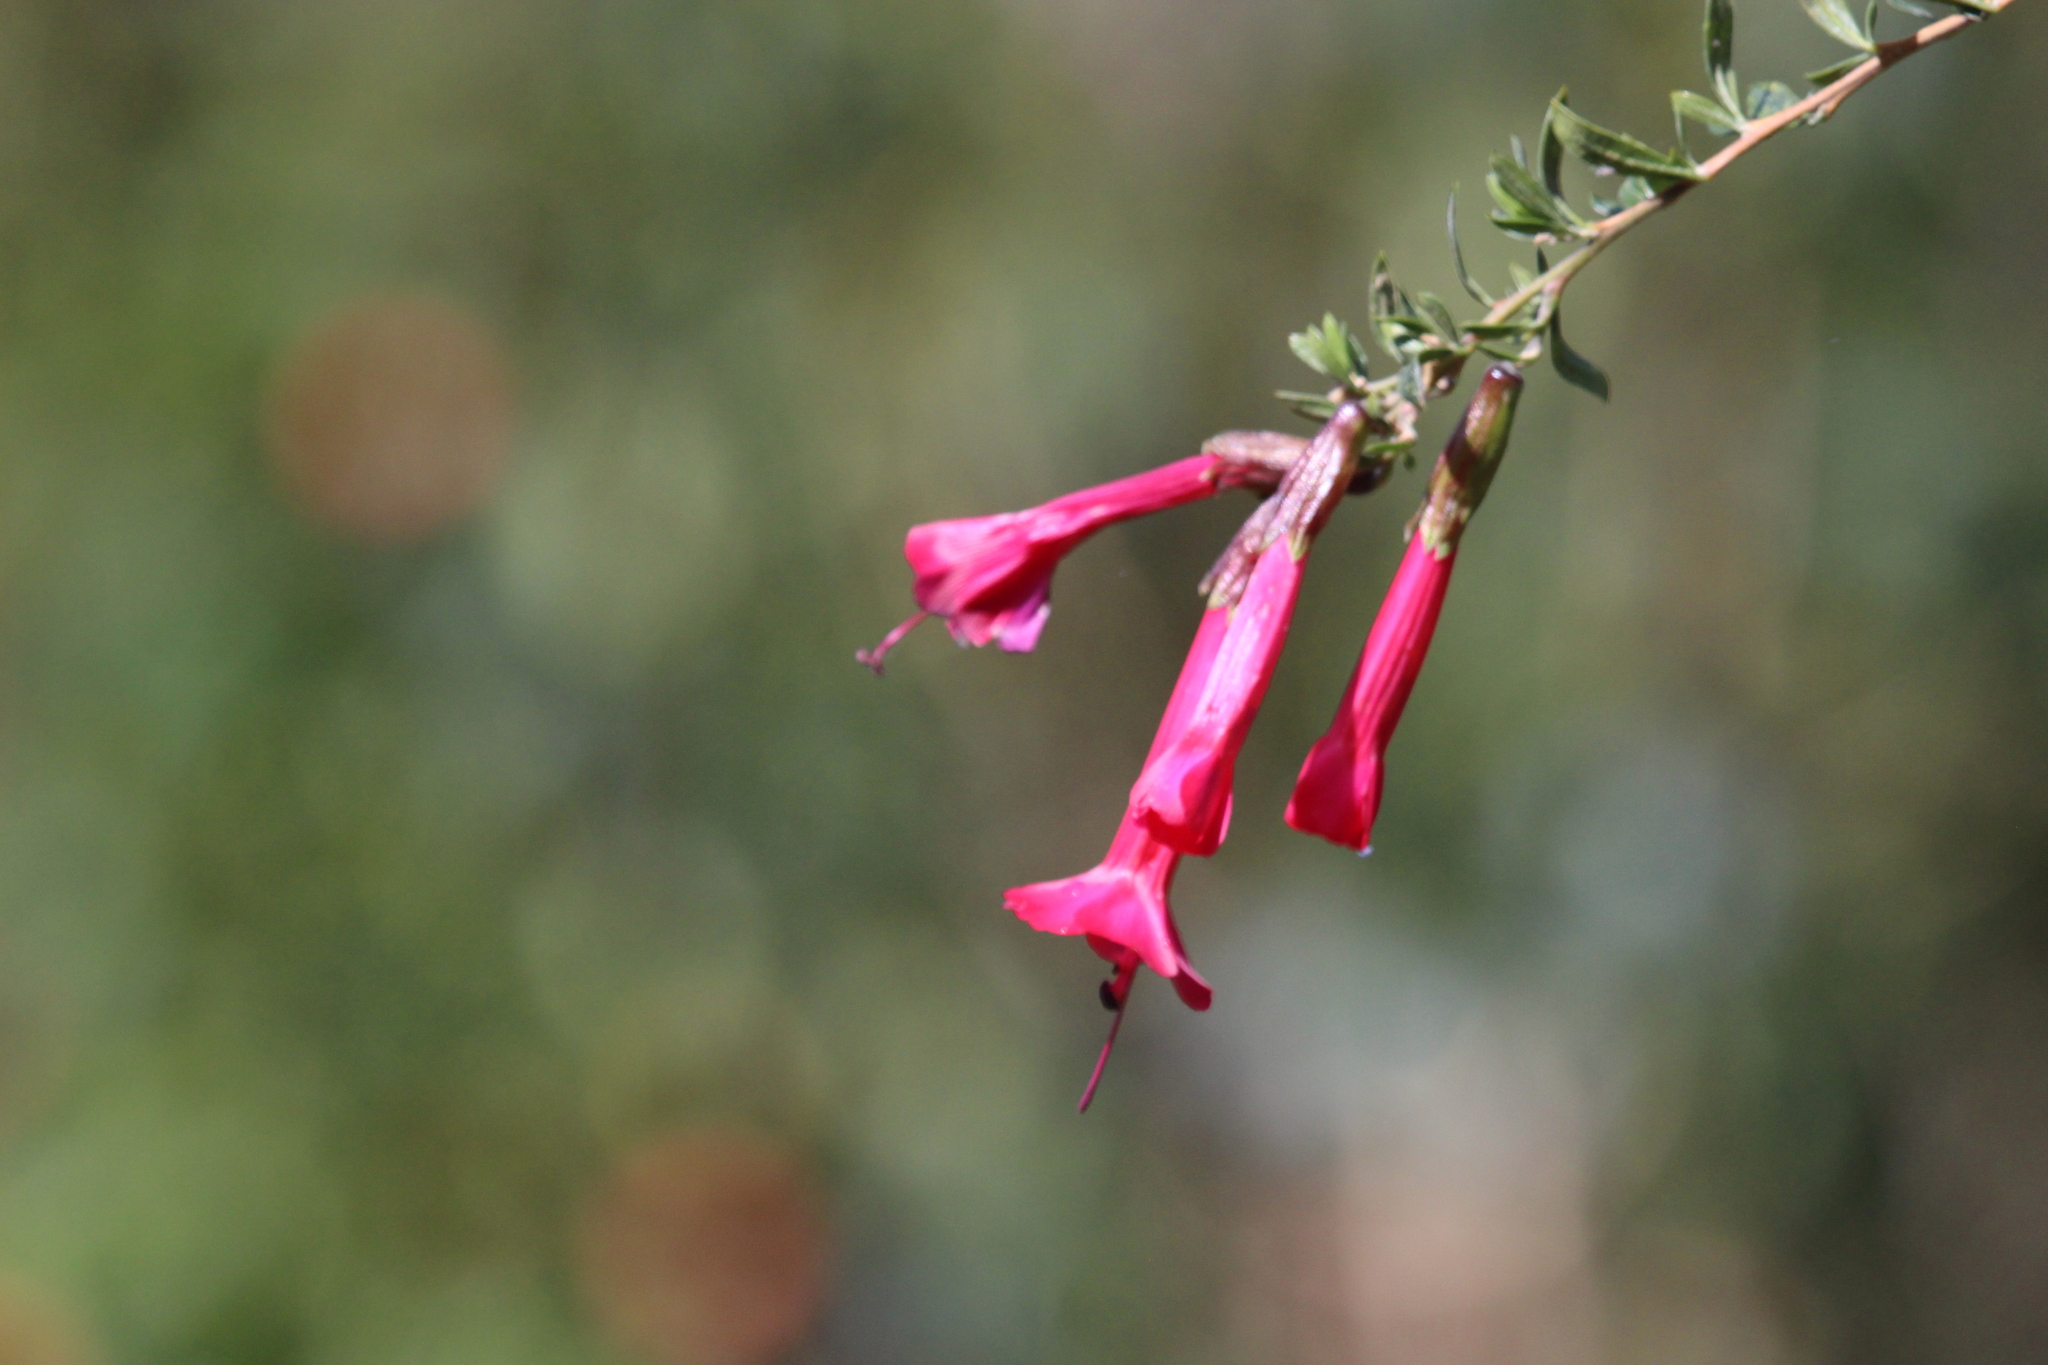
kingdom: Plantae
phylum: Tracheophyta
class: Magnoliopsida
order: Ericales
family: Polemoniaceae
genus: Cantua
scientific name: Cantua buxifolia
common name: Sacred-flower-of-the-incas
